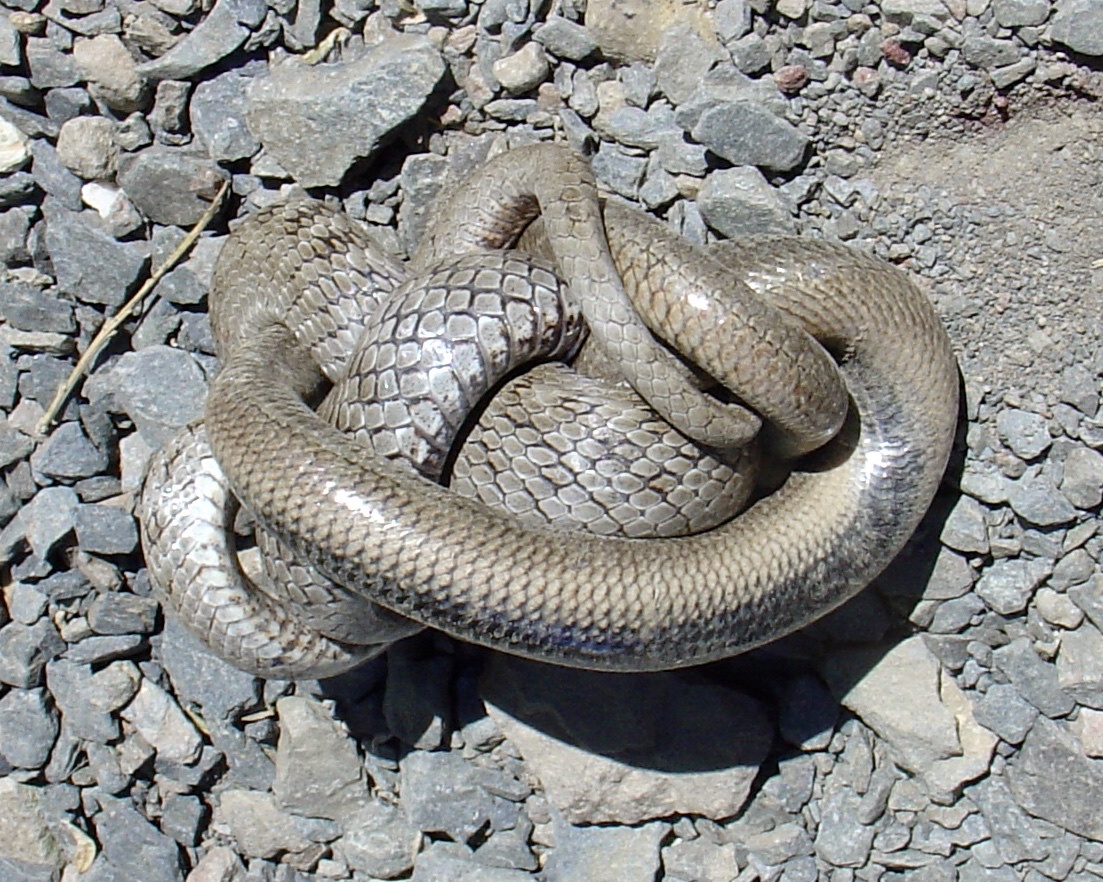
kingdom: Animalia
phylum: Chordata
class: Squamata
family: Colubridae
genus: Coronella
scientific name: Coronella austriaca
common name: Smooth snake
